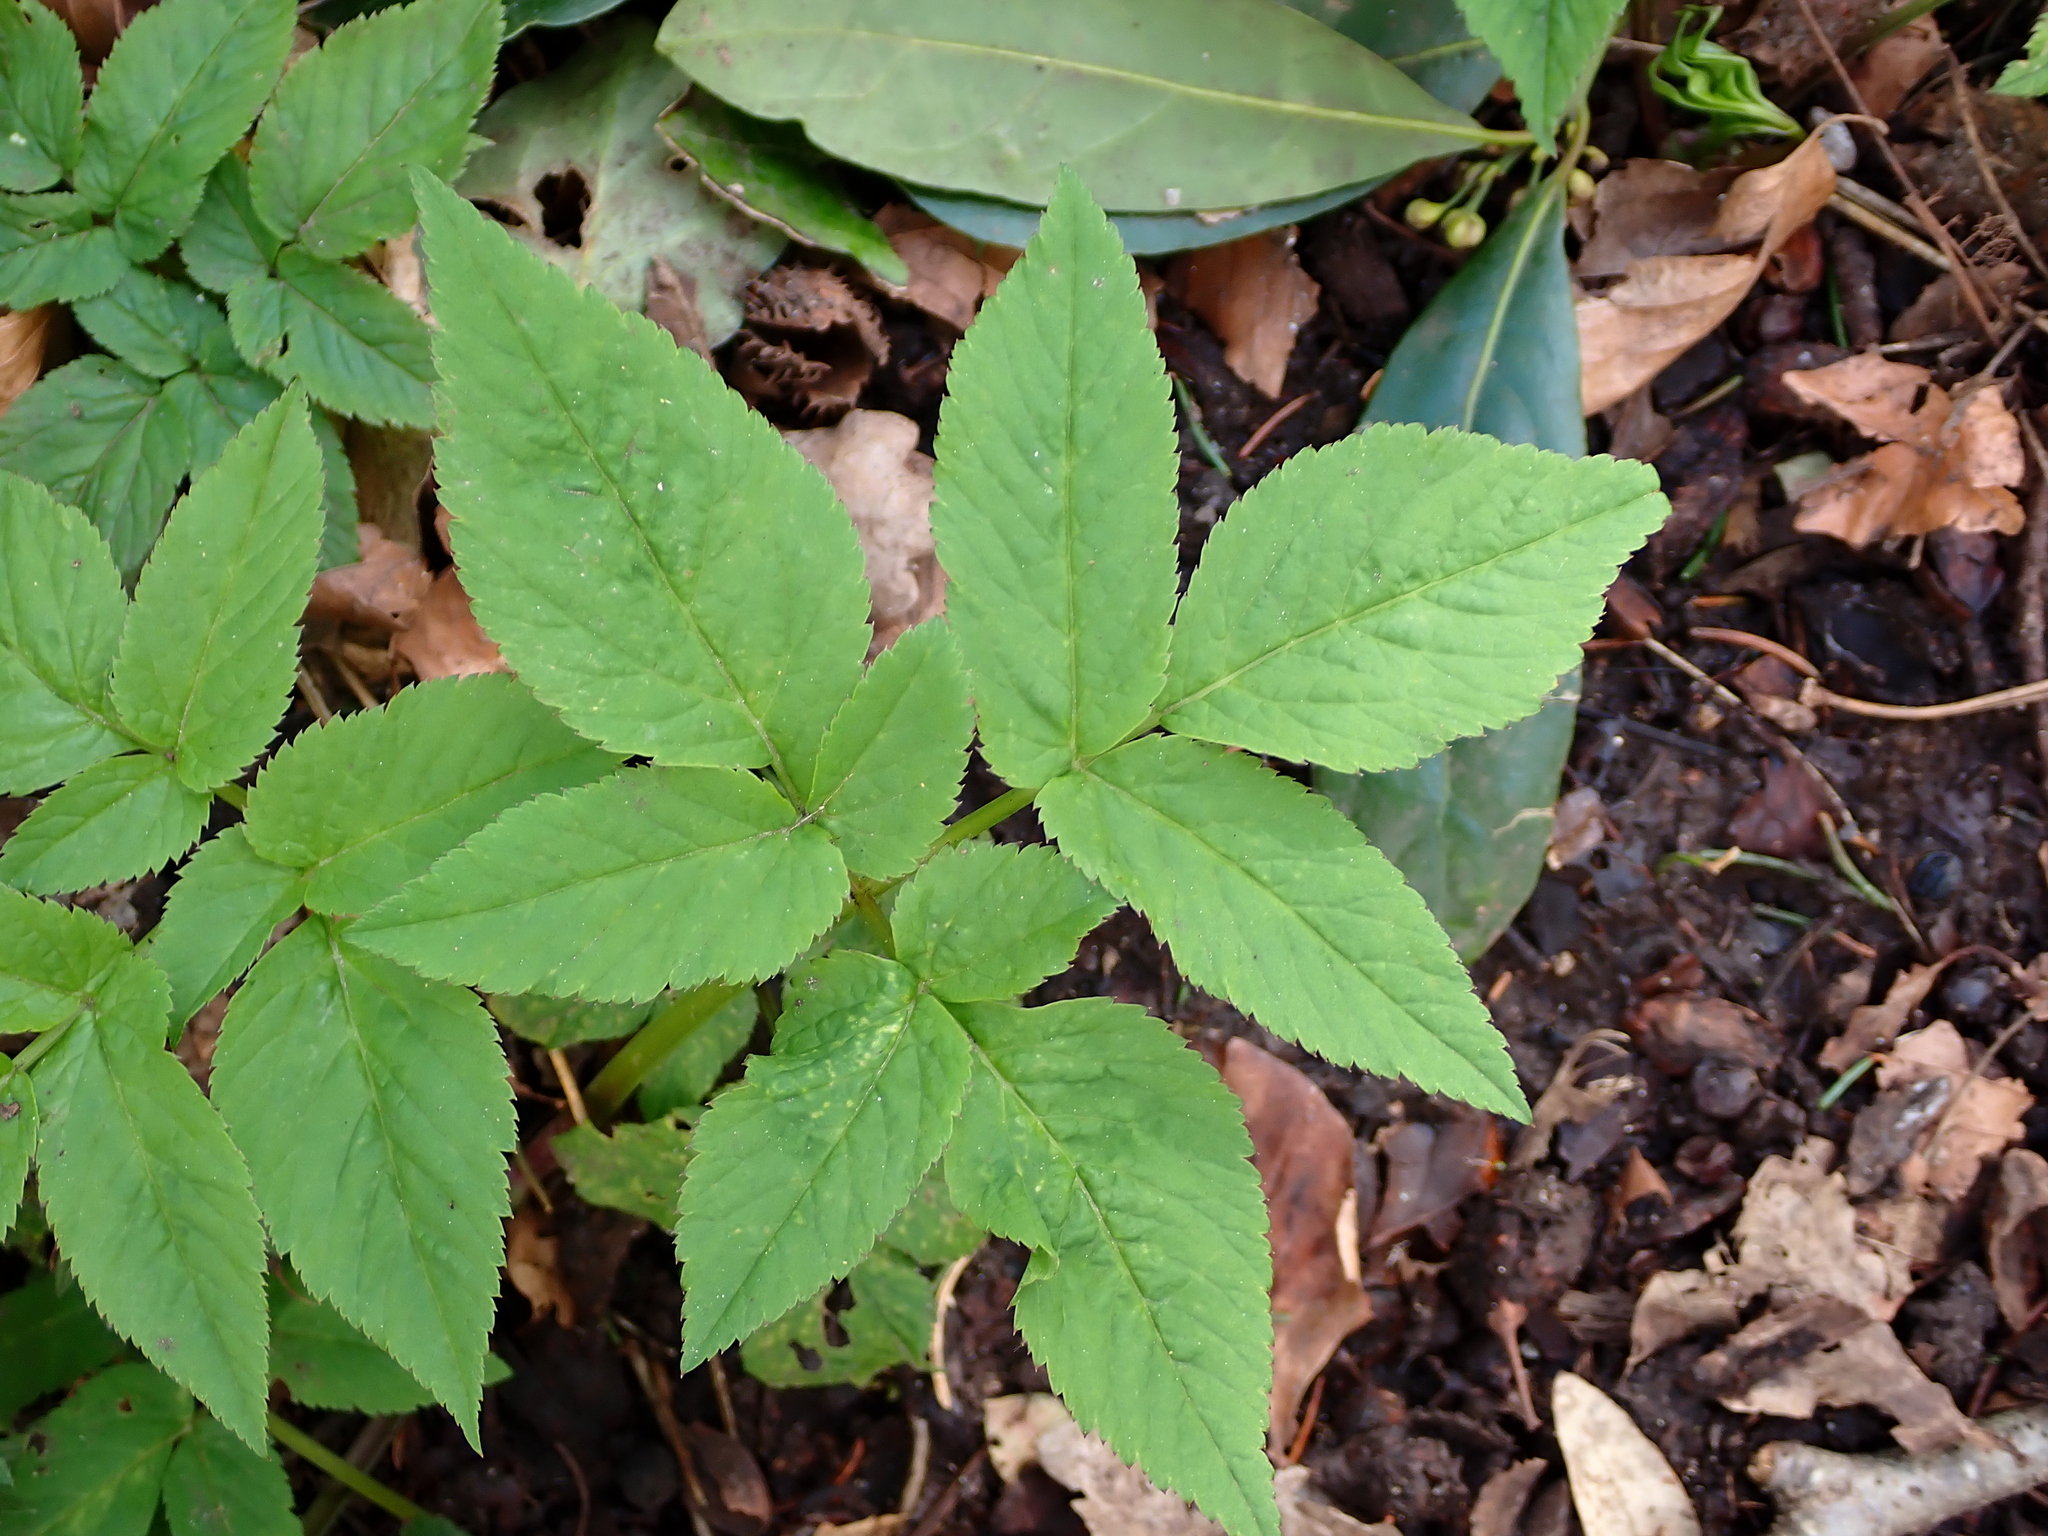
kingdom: Plantae
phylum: Tracheophyta
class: Magnoliopsida
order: Apiales
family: Apiaceae
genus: Aegopodium
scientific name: Aegopodium podagraria
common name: Ground-elder
